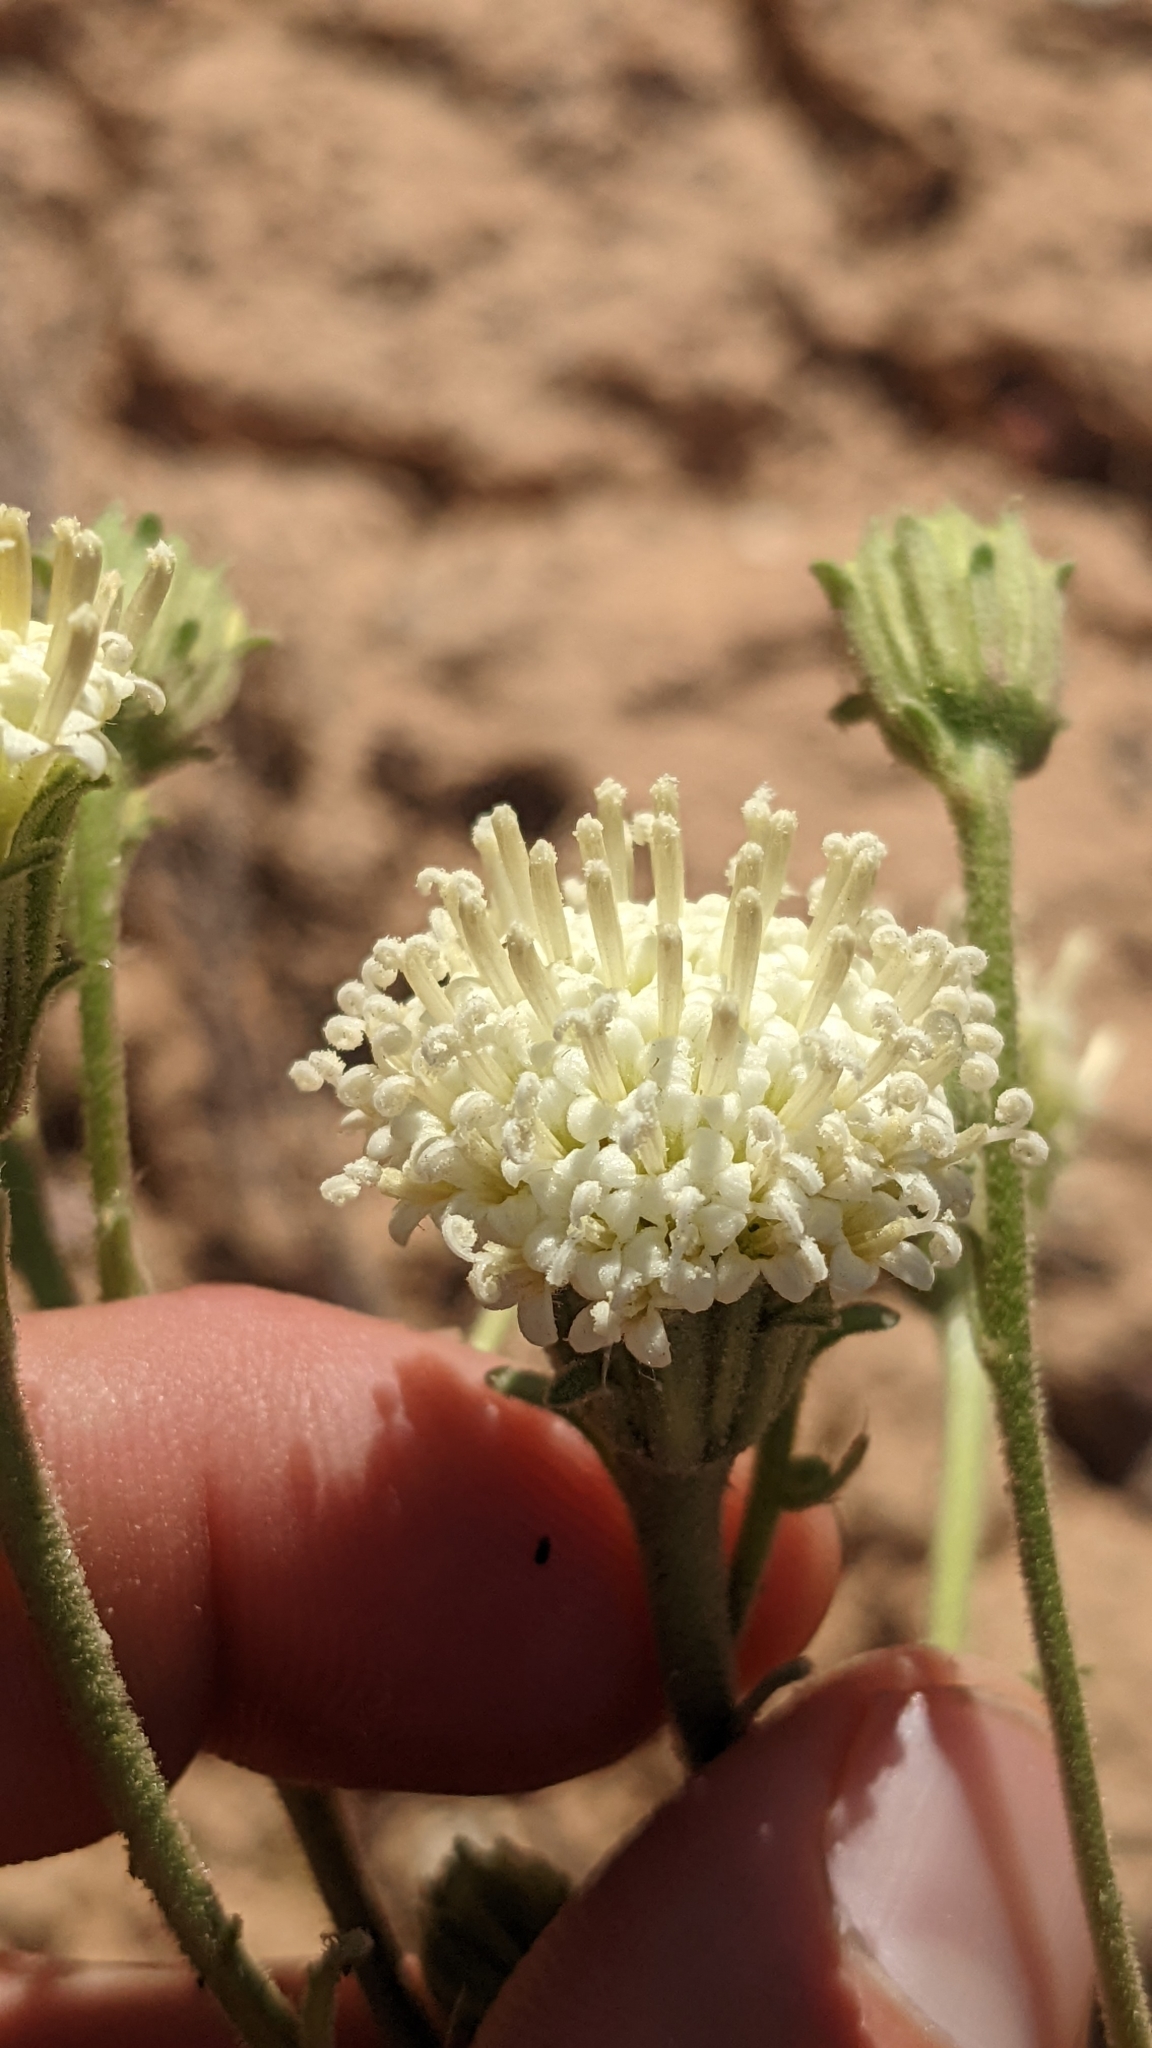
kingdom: Plantae
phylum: Tracheophyta
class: Magnoliopsida
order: Asterales
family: Asteraceae
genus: Chaenactis
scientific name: Chaenactis douglasii
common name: Hoary pincushion
